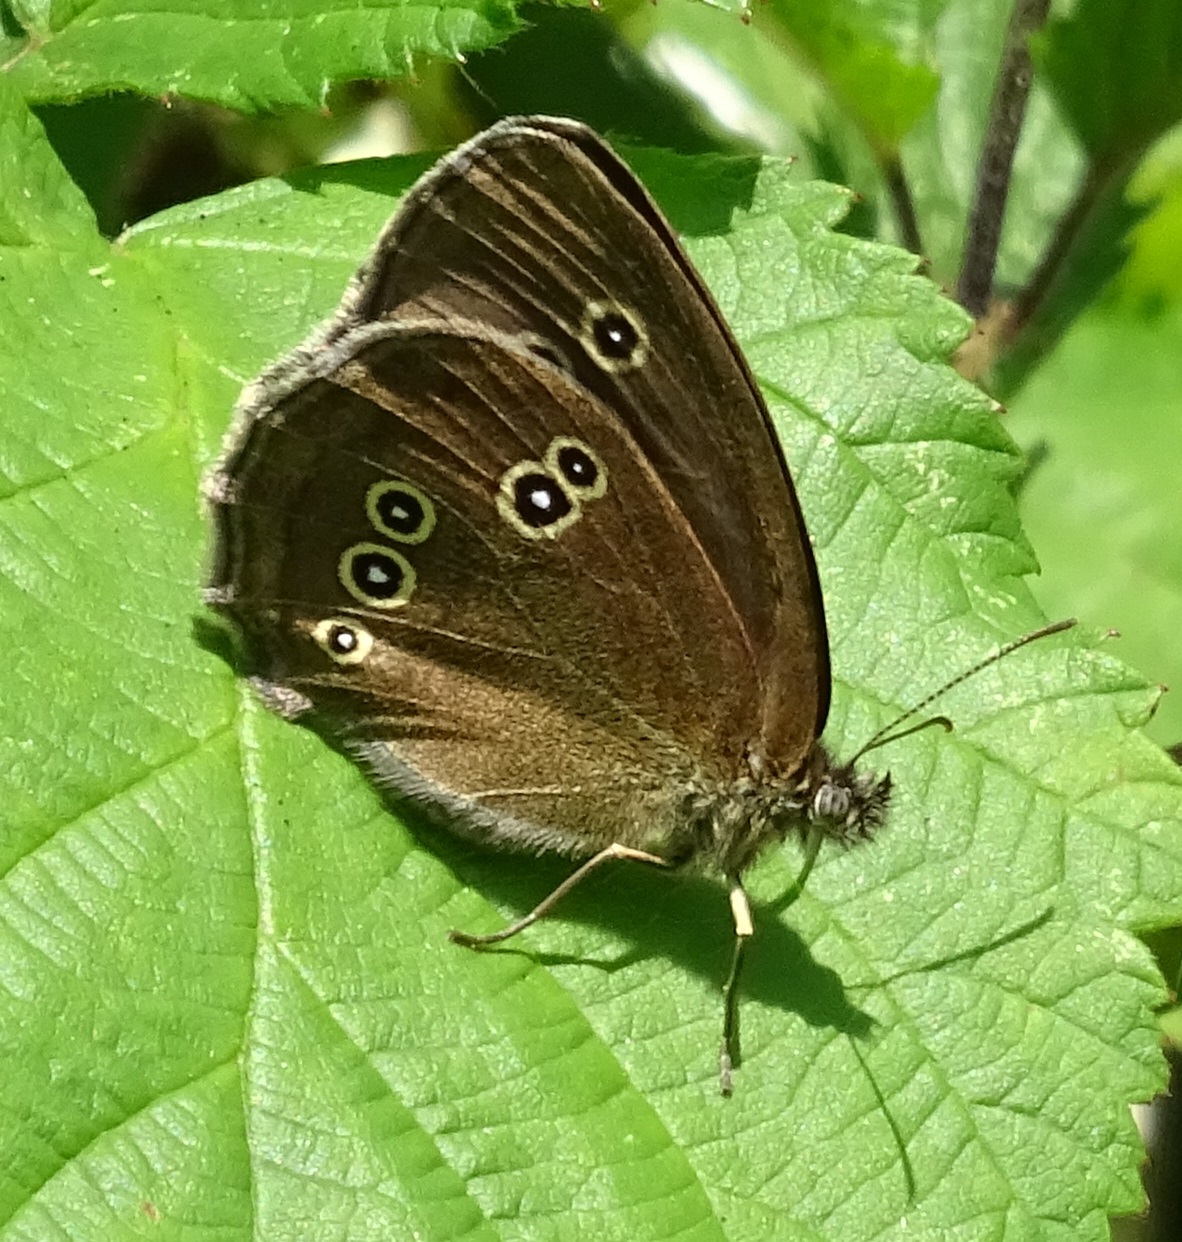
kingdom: Animalia
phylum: Arthropoda
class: Insecta
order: Lepidoptera
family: Nymphalidae
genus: Aphantopus
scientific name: Aphantopus hyperantus
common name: Ringlet
